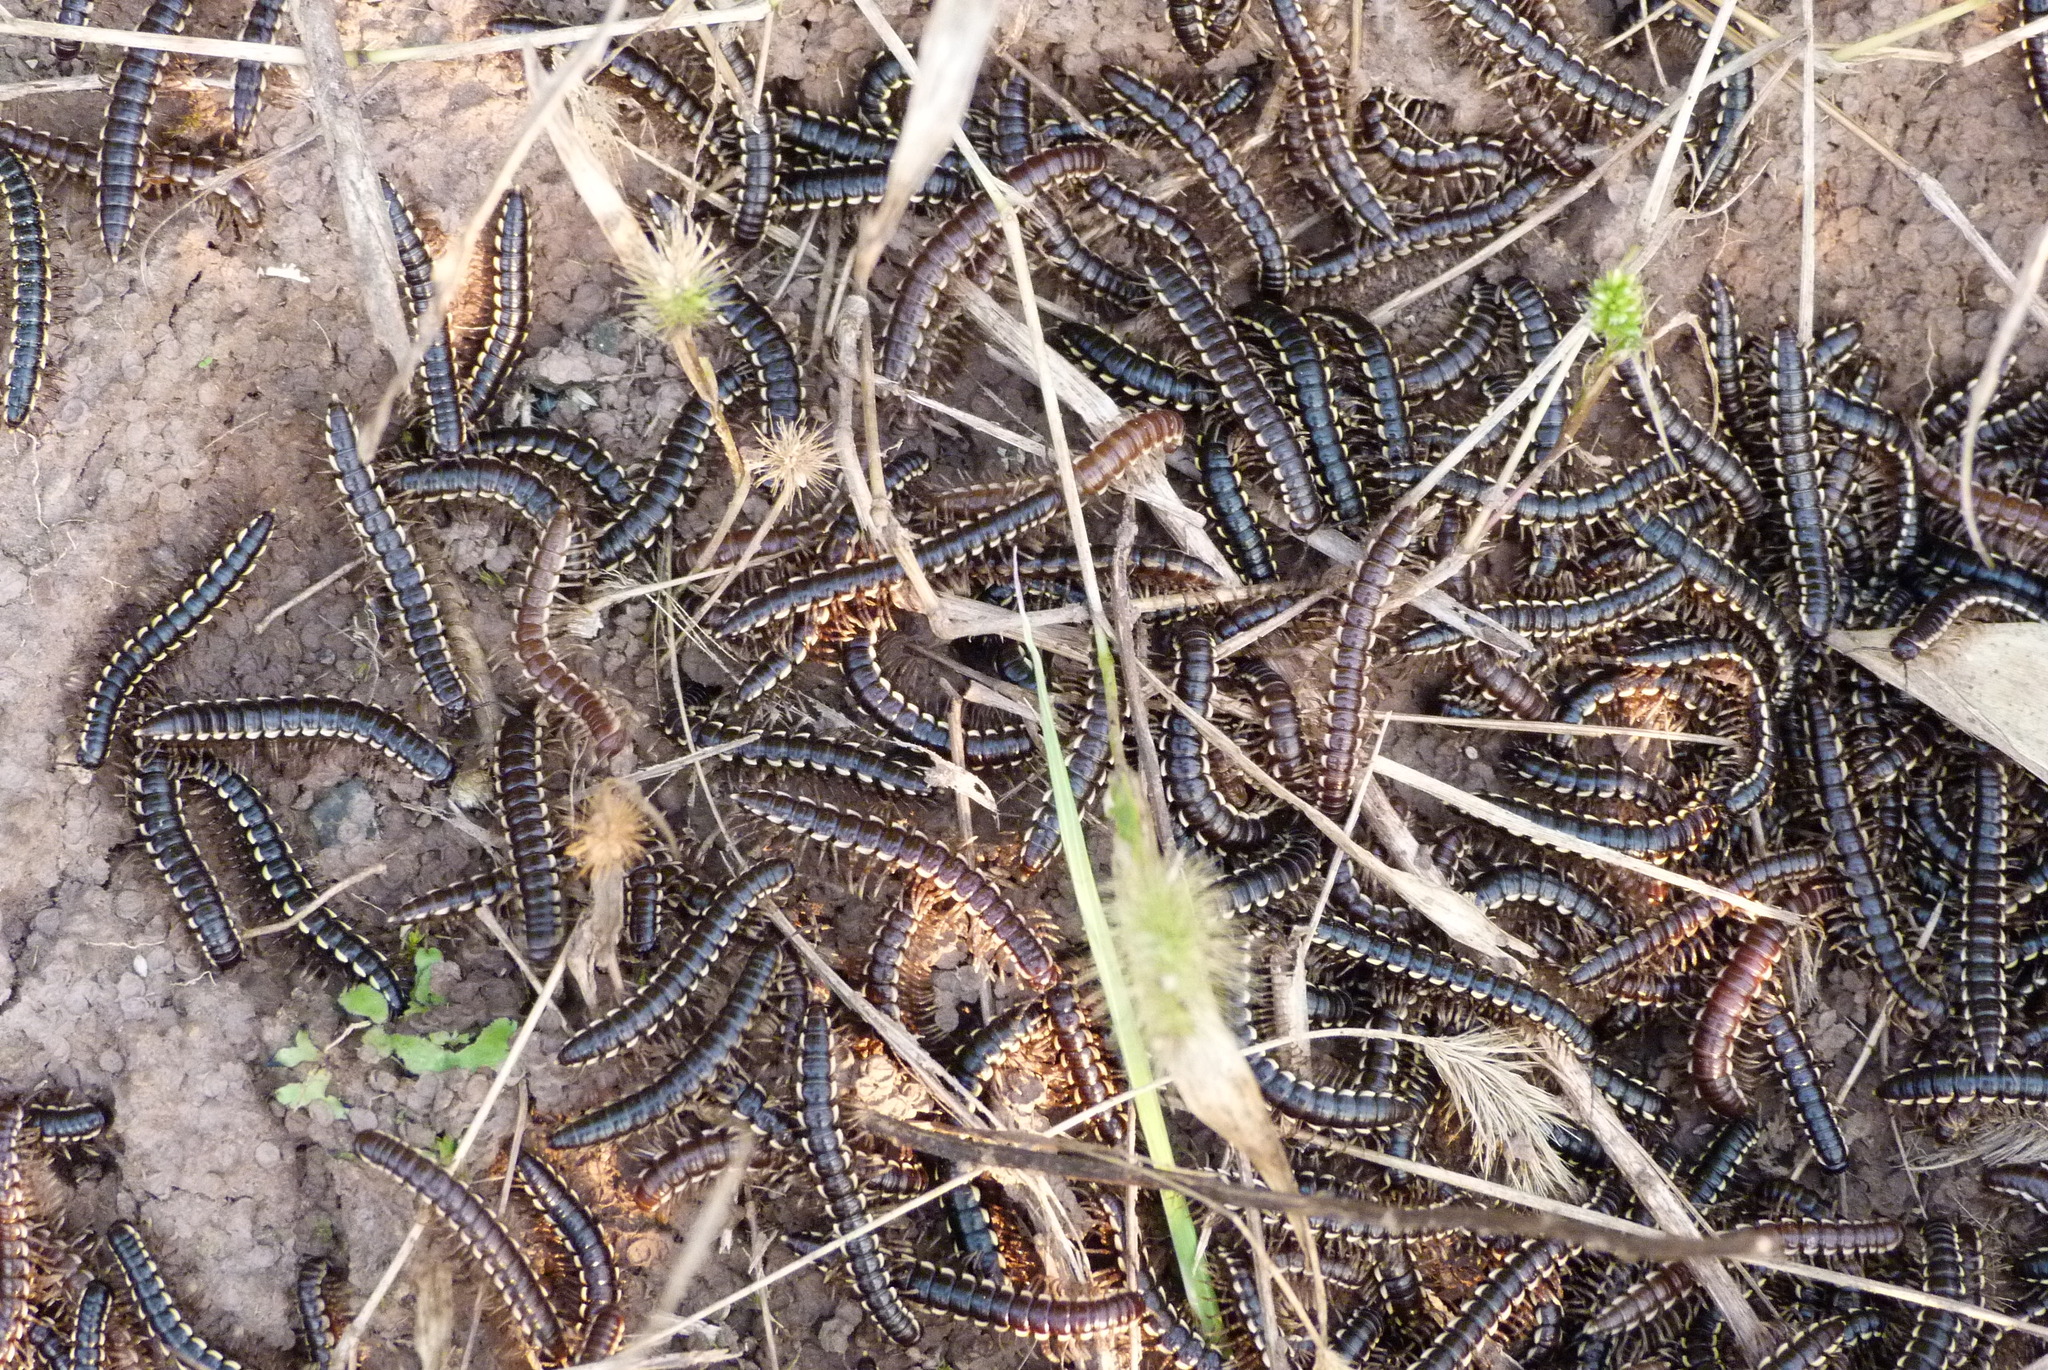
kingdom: Animalia
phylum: Arthropoda
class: Diplopoda
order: Polydesmida
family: Paradoxosomatidae
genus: Orthomorphella
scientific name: Orthomorphella pekuensis
